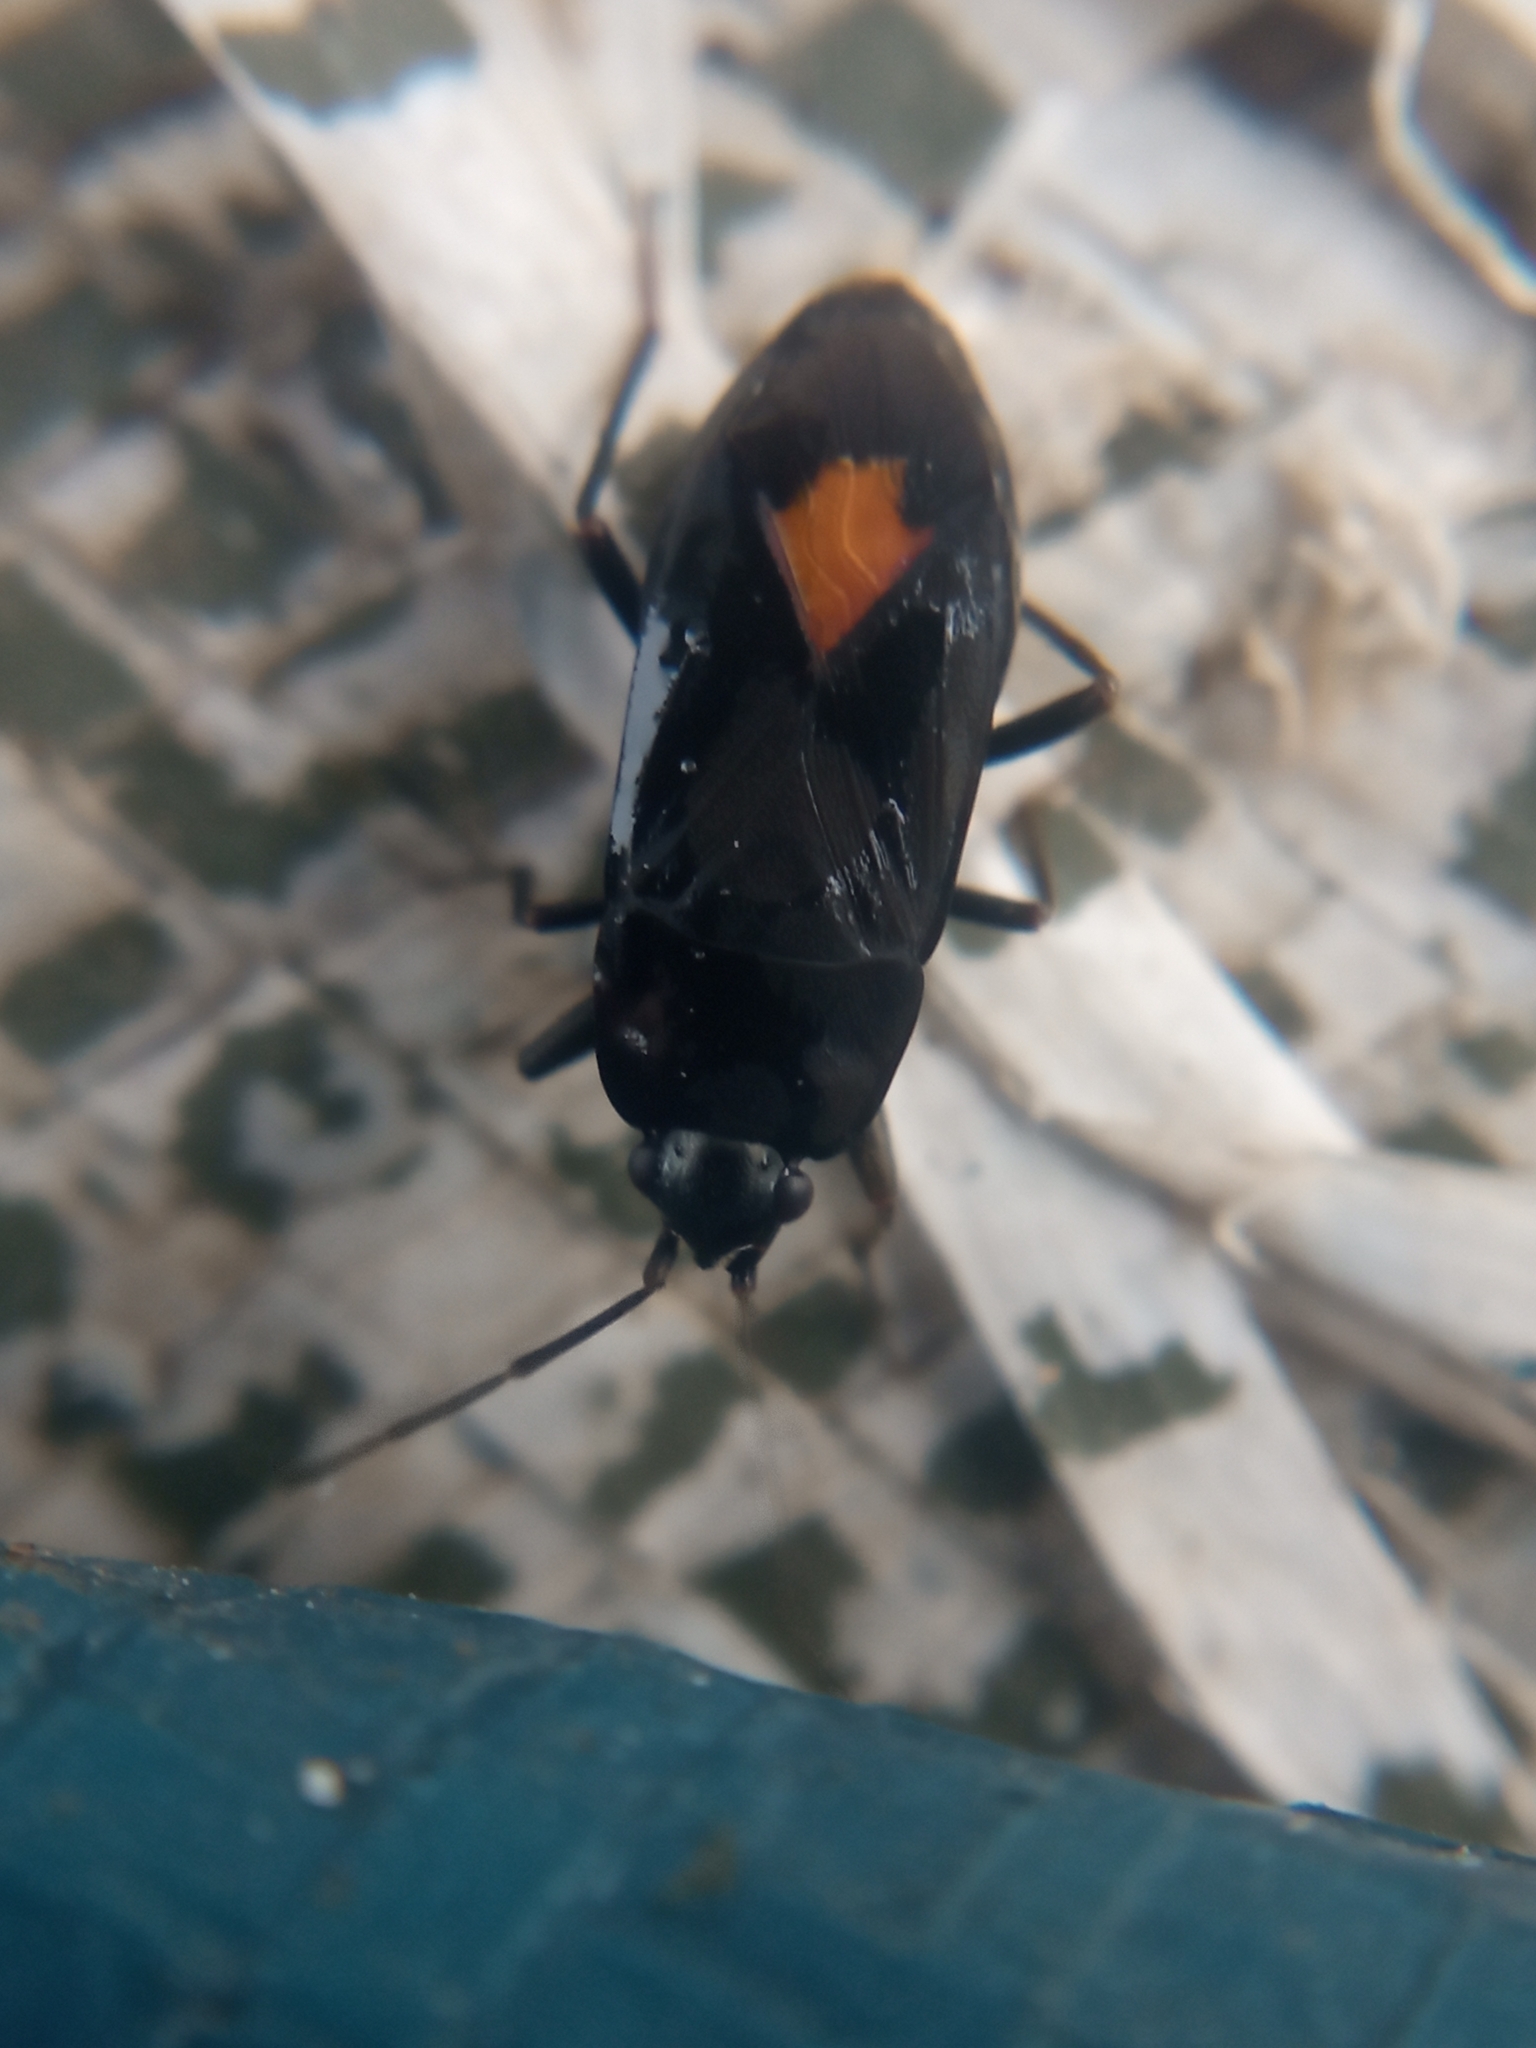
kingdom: Animalia
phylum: Arthropoda
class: Insecta
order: Hemiptera
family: Rhyparochromidae
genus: Aphanus
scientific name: Aphanus rolandri
